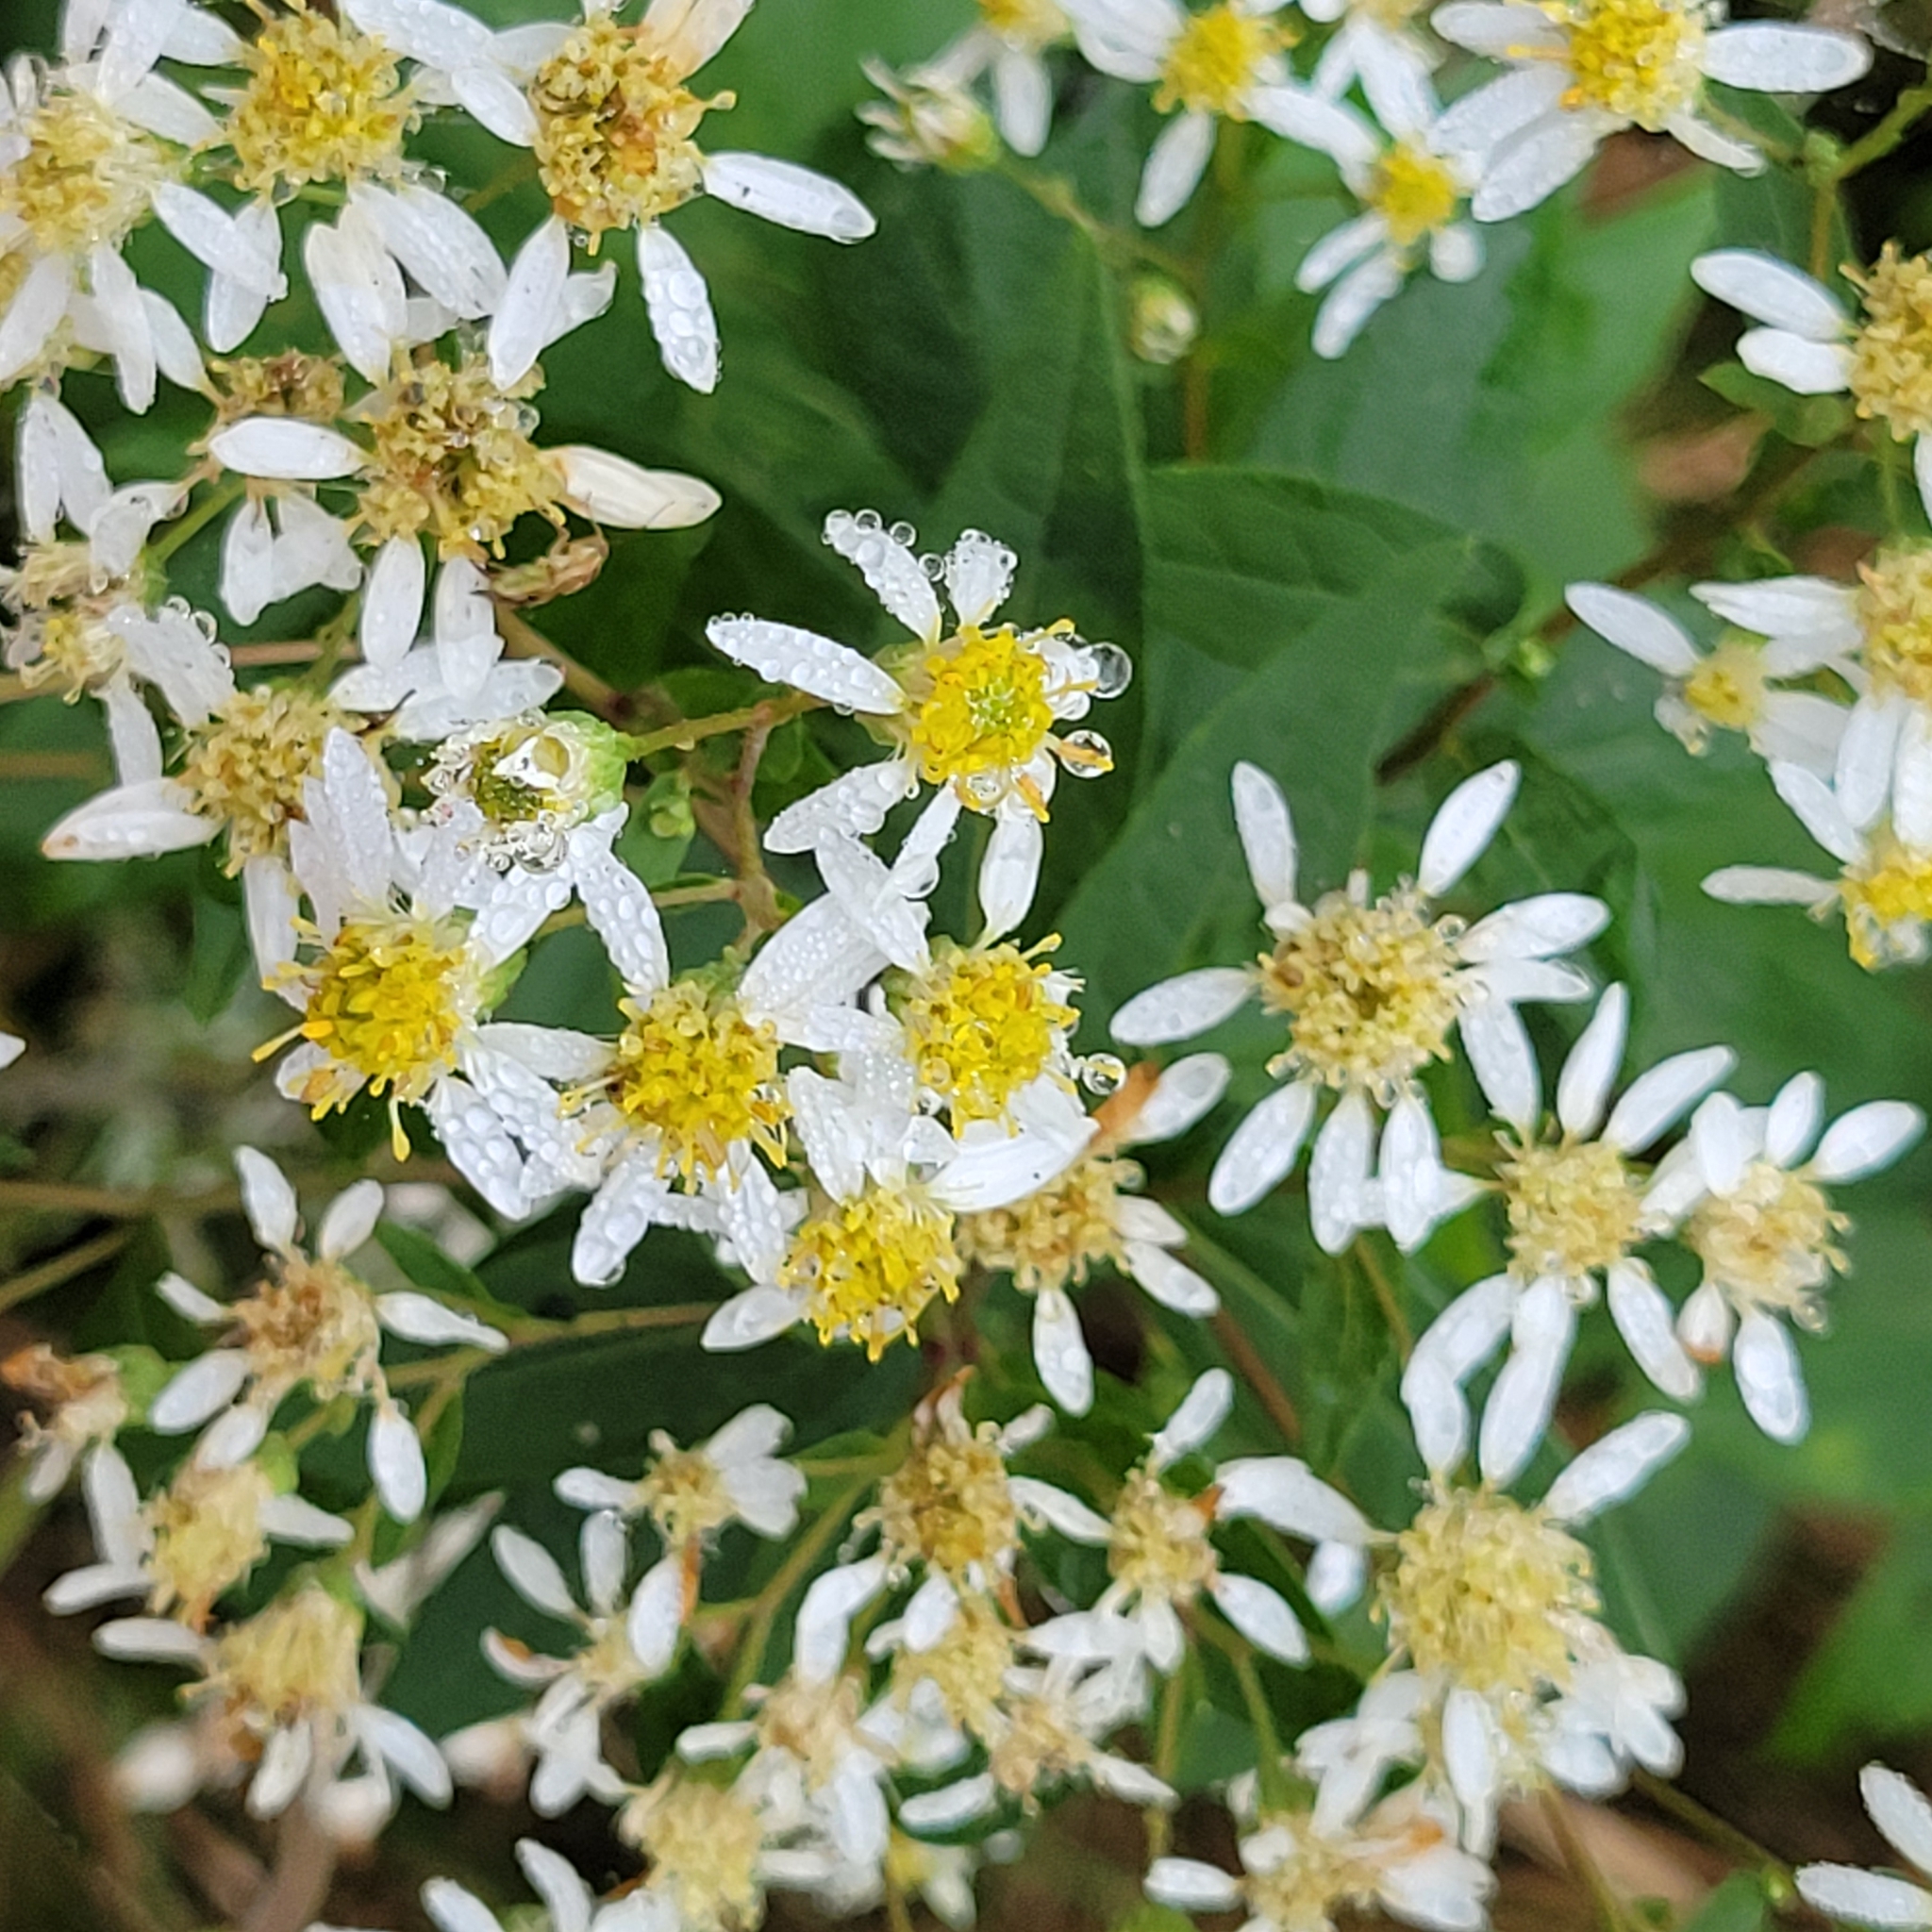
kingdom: Plantae
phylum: Tracheophyta
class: Magnoliopsida
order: Asterales
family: Asteraceae
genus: Doellingeria
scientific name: Doellingeria umbellata
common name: Flat-top white aster
